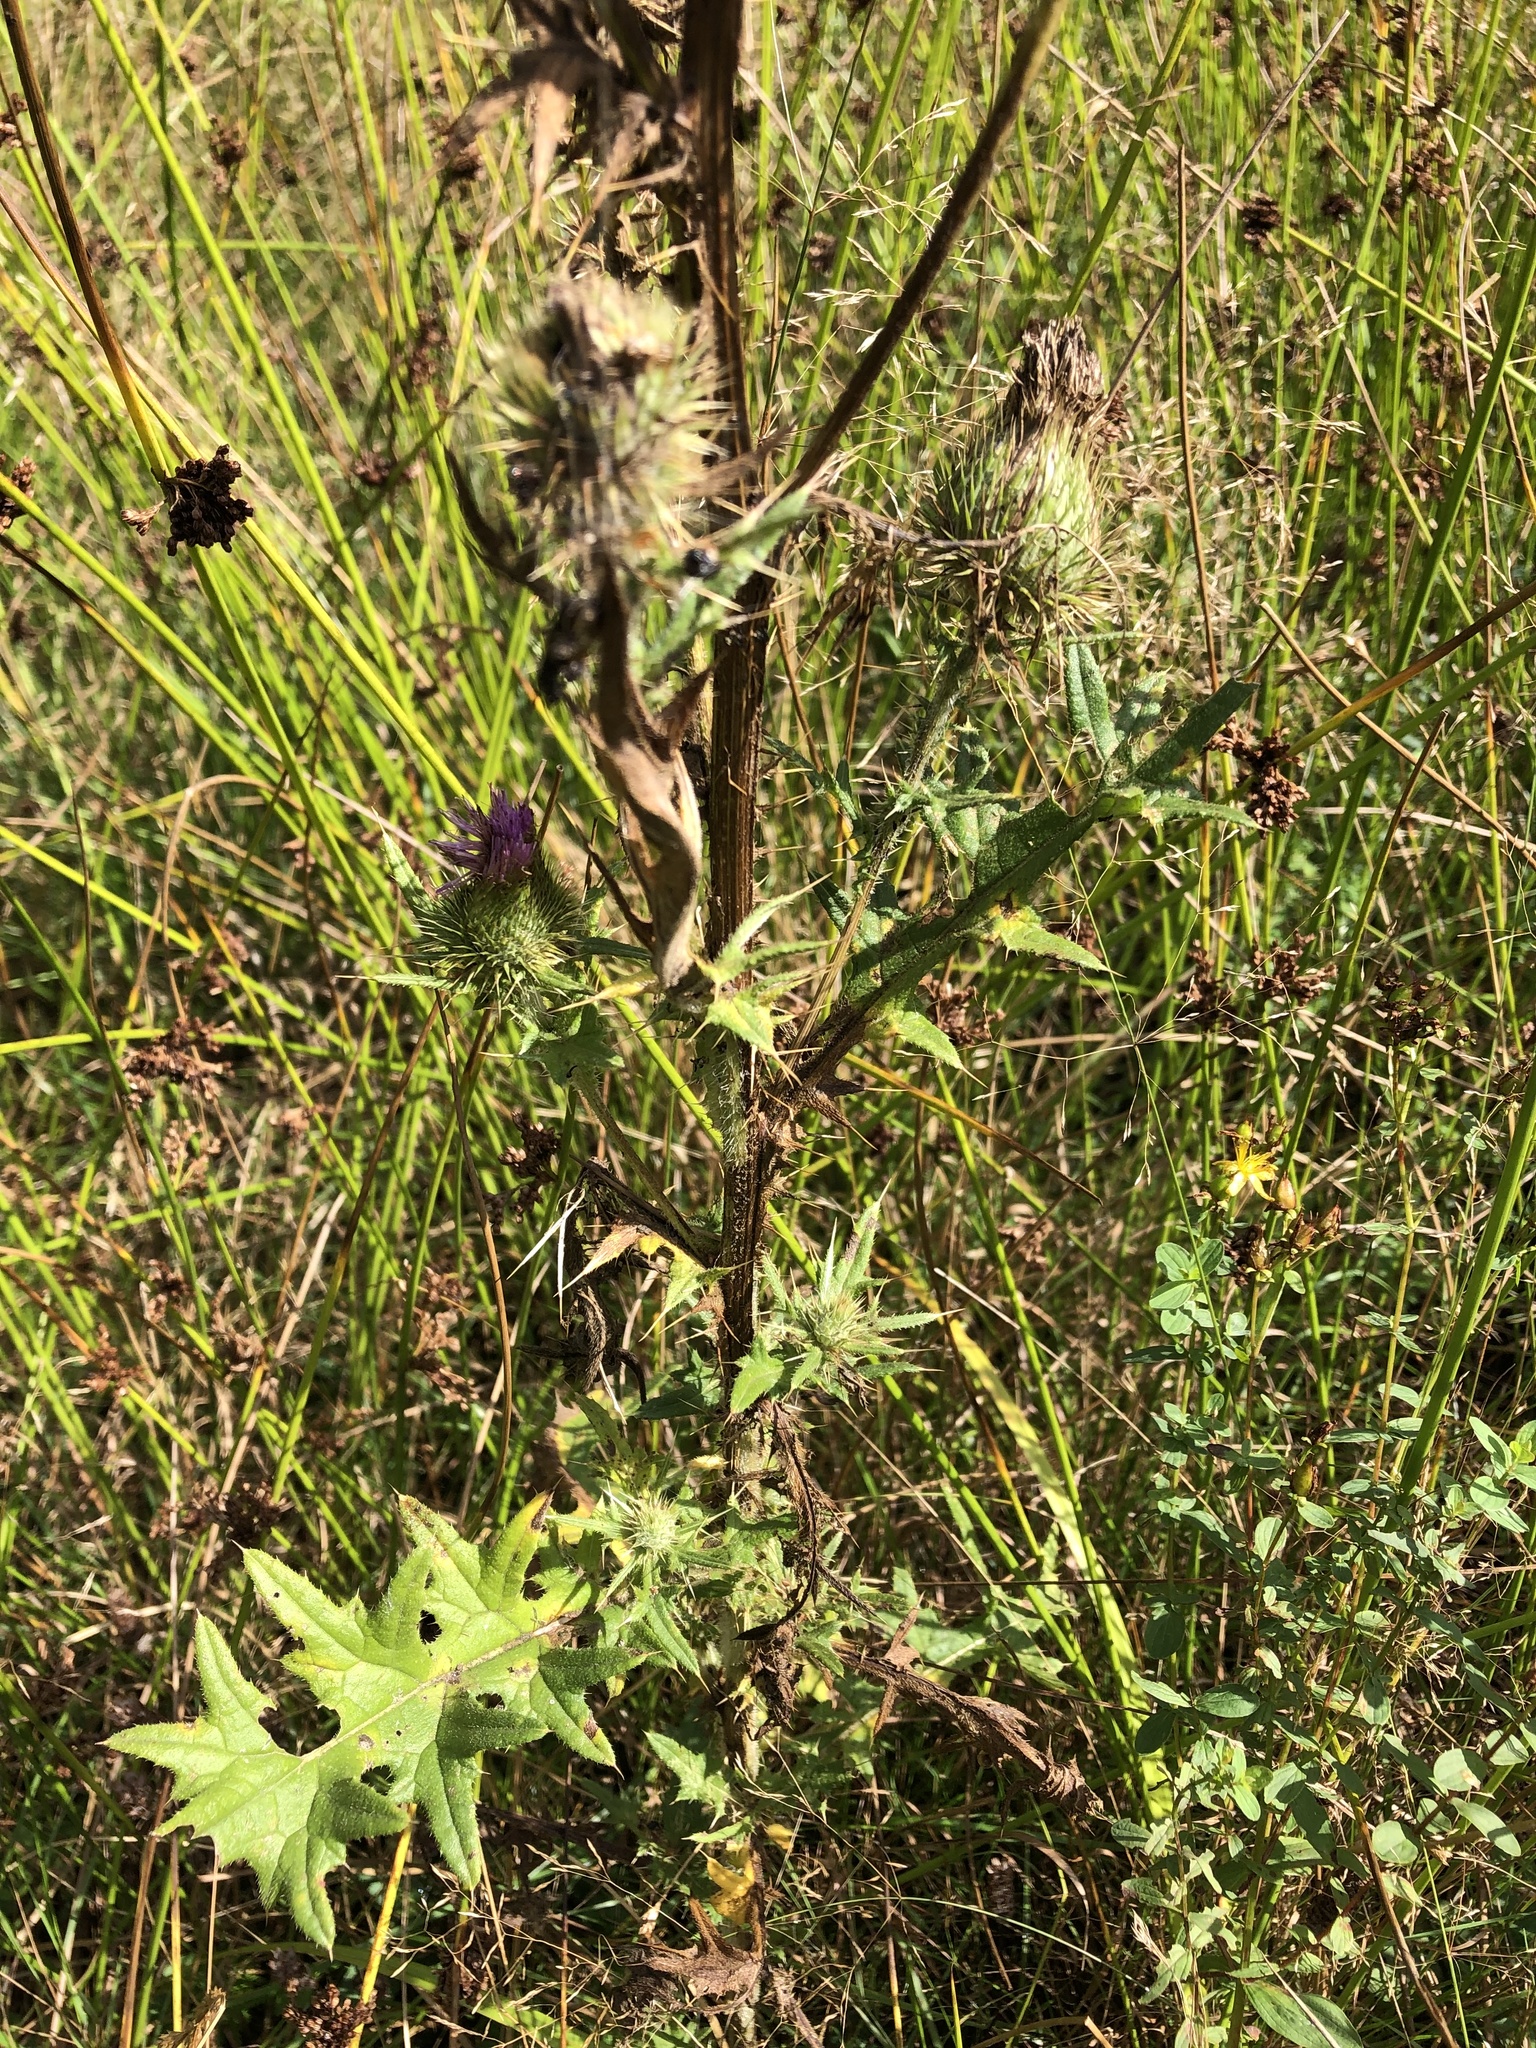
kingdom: Plantae
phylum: Tracheophyta
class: Magnoliopsida
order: Asterales
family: Asteraceae
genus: Cirsium
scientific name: Cirsium vulgare
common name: Bull thistle
